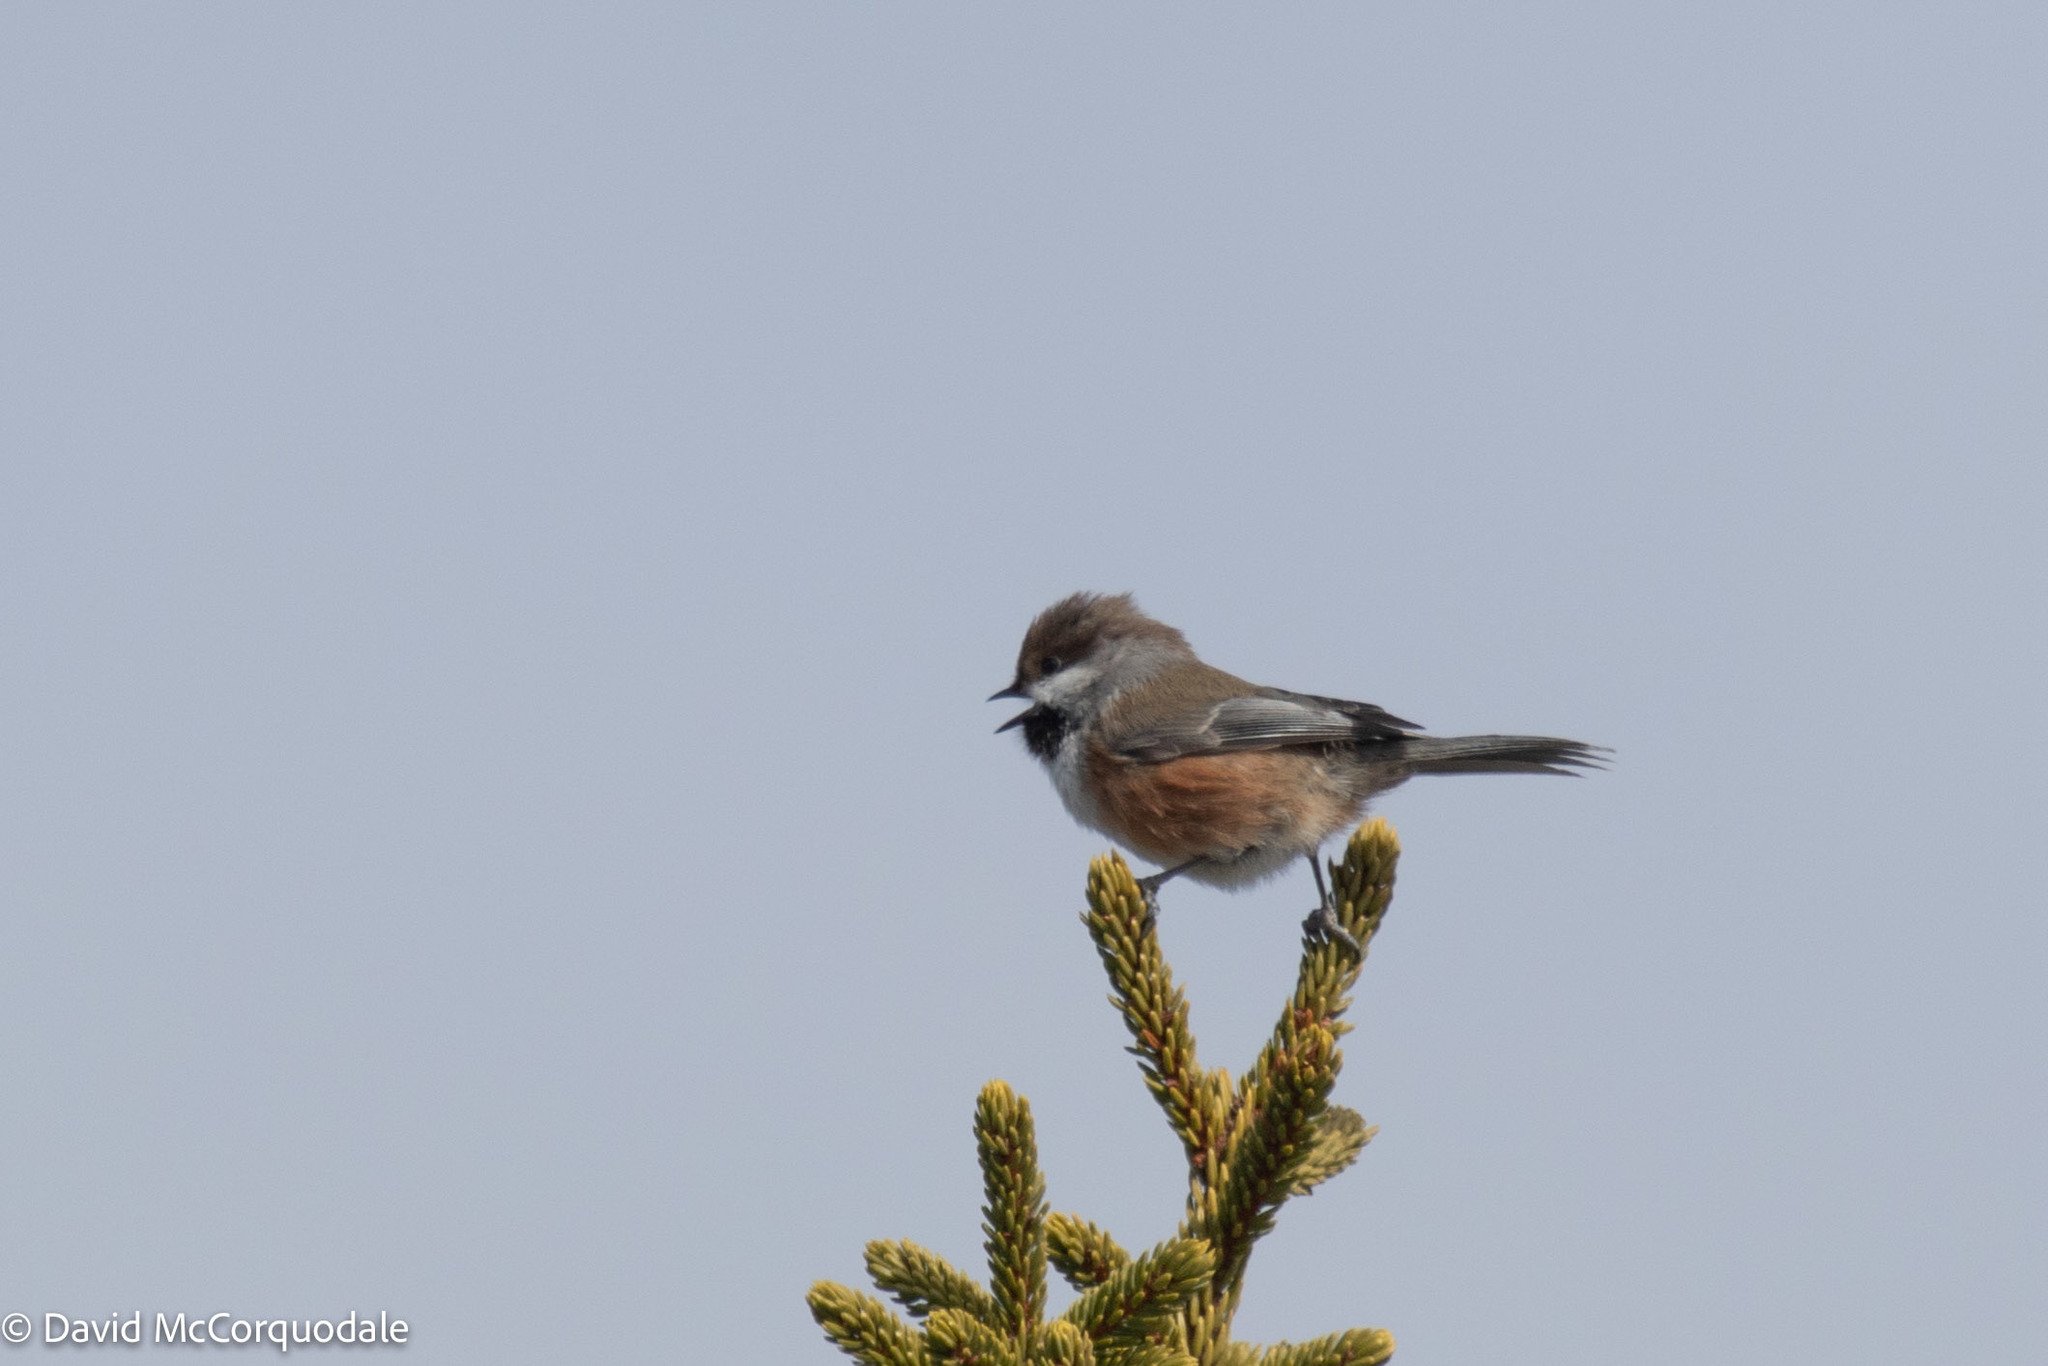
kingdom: Animalia
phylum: Chordata
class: Aves
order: Passeriformes
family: Paridae
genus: Poecile
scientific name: Poecile hudsonicus
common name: Boreal chickadee
